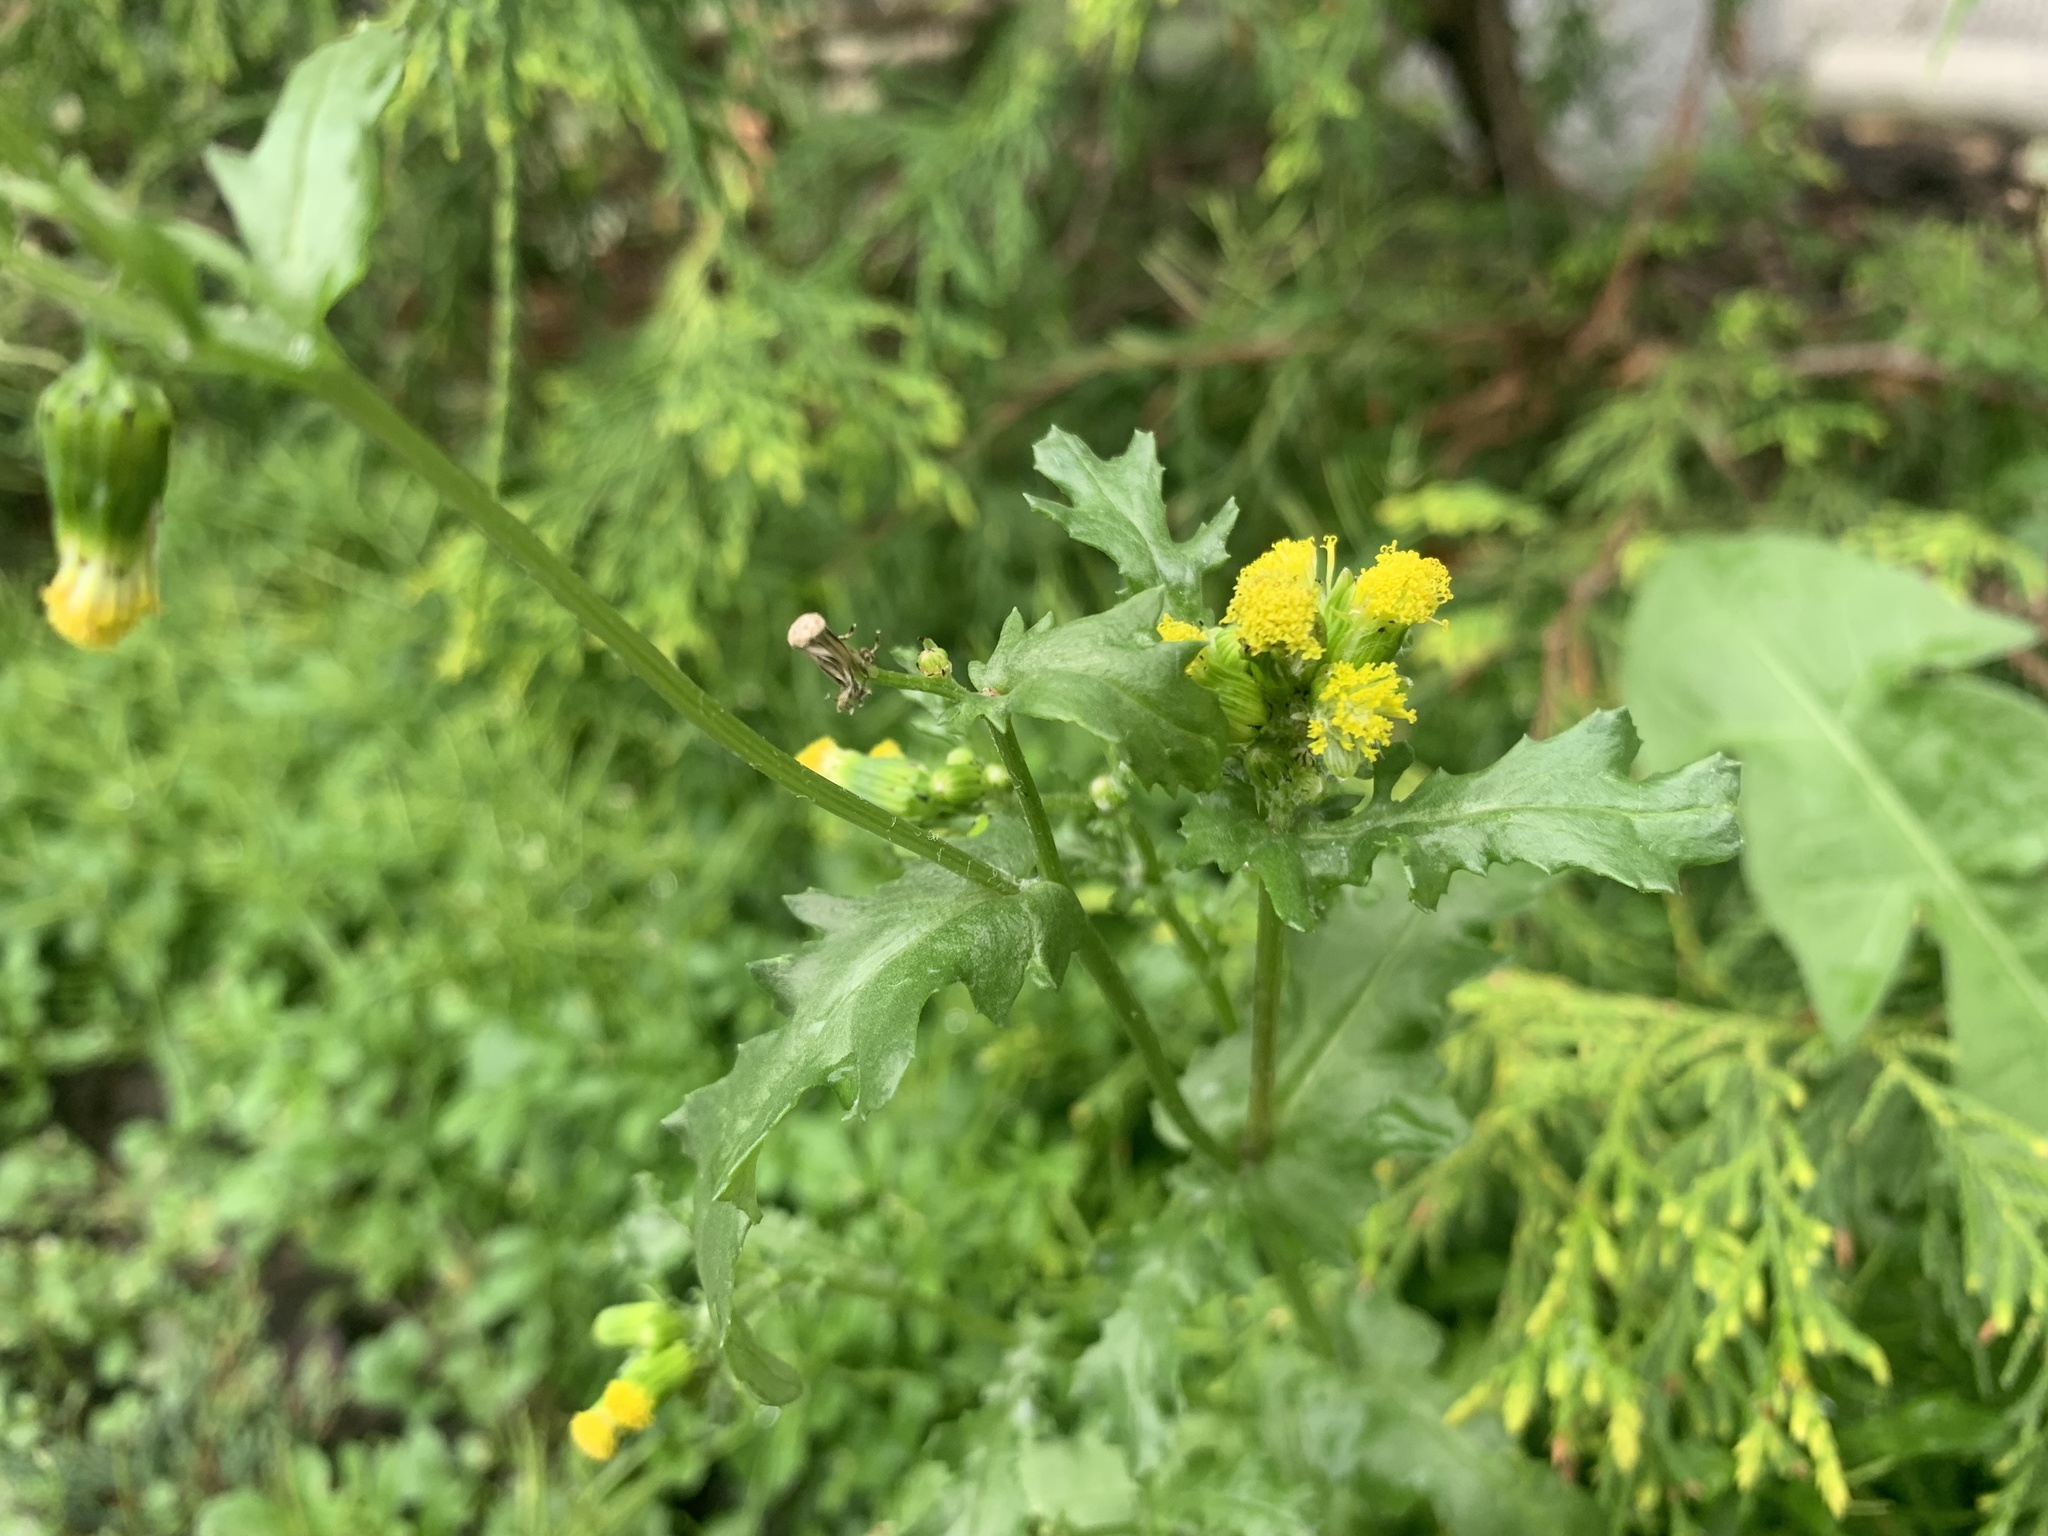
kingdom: Plantae
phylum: Tracheophyta
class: Magnoliopsida
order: Asterales
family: Asteraceae
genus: Senecio
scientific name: Senecio vulgaris
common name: Old-man-in-the-spring
